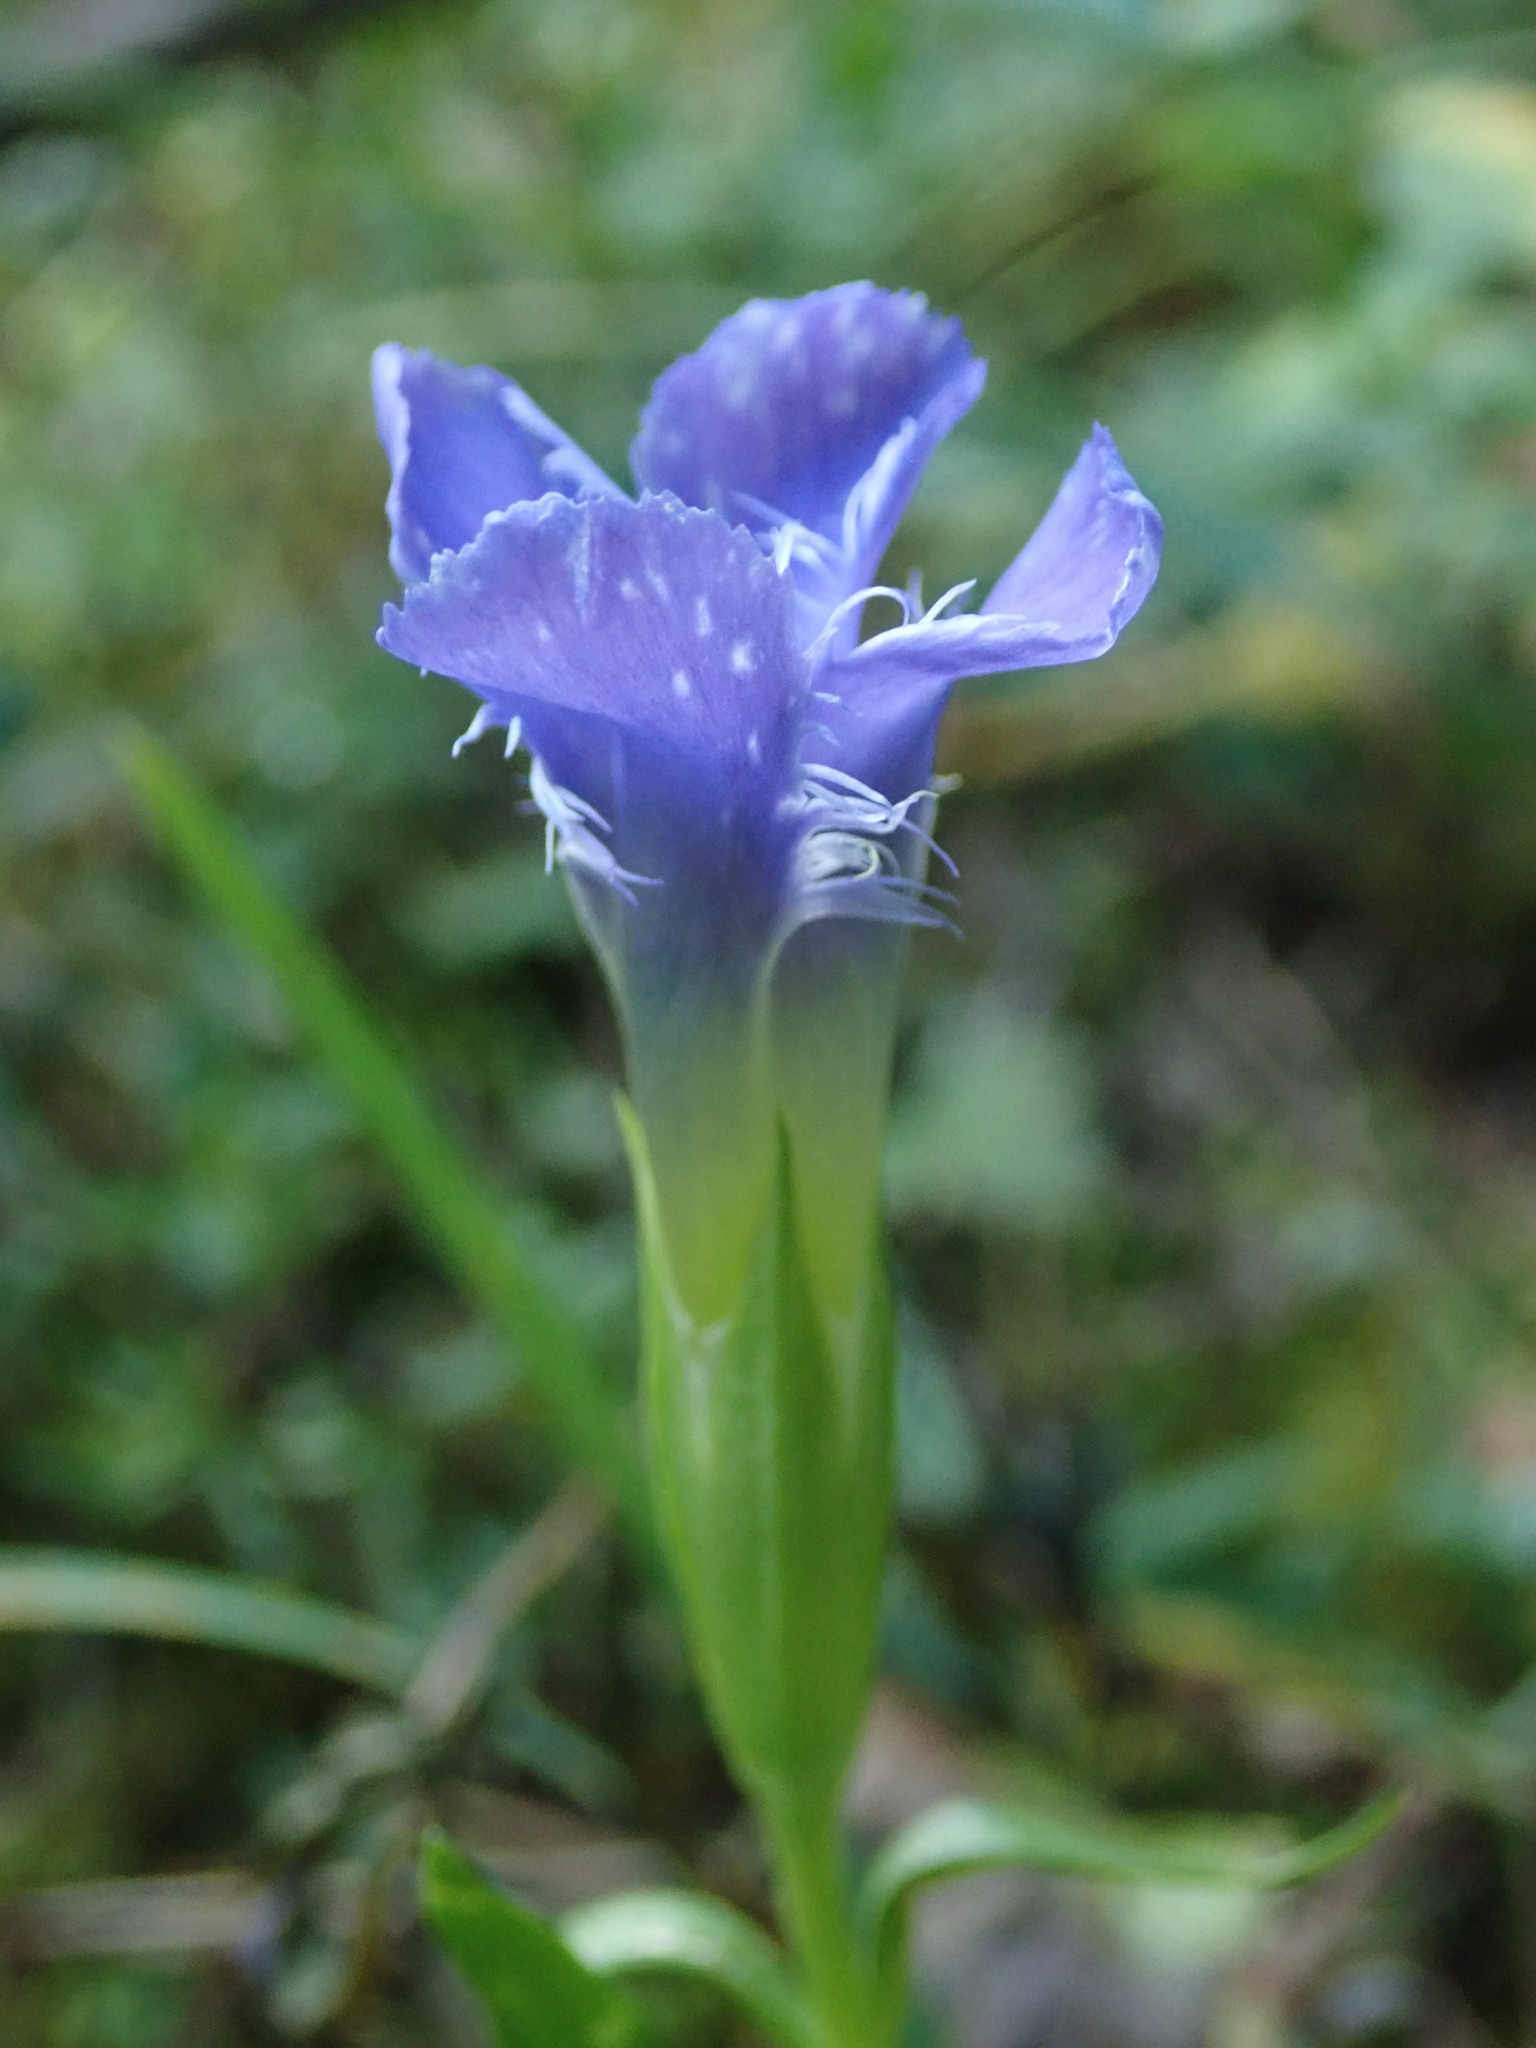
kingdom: Plantae
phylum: Tracheophyta
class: Magnoliopsida
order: Gentianales
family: Gentianaceae
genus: Gentianopsis
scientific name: Gentianopsis ciliata
